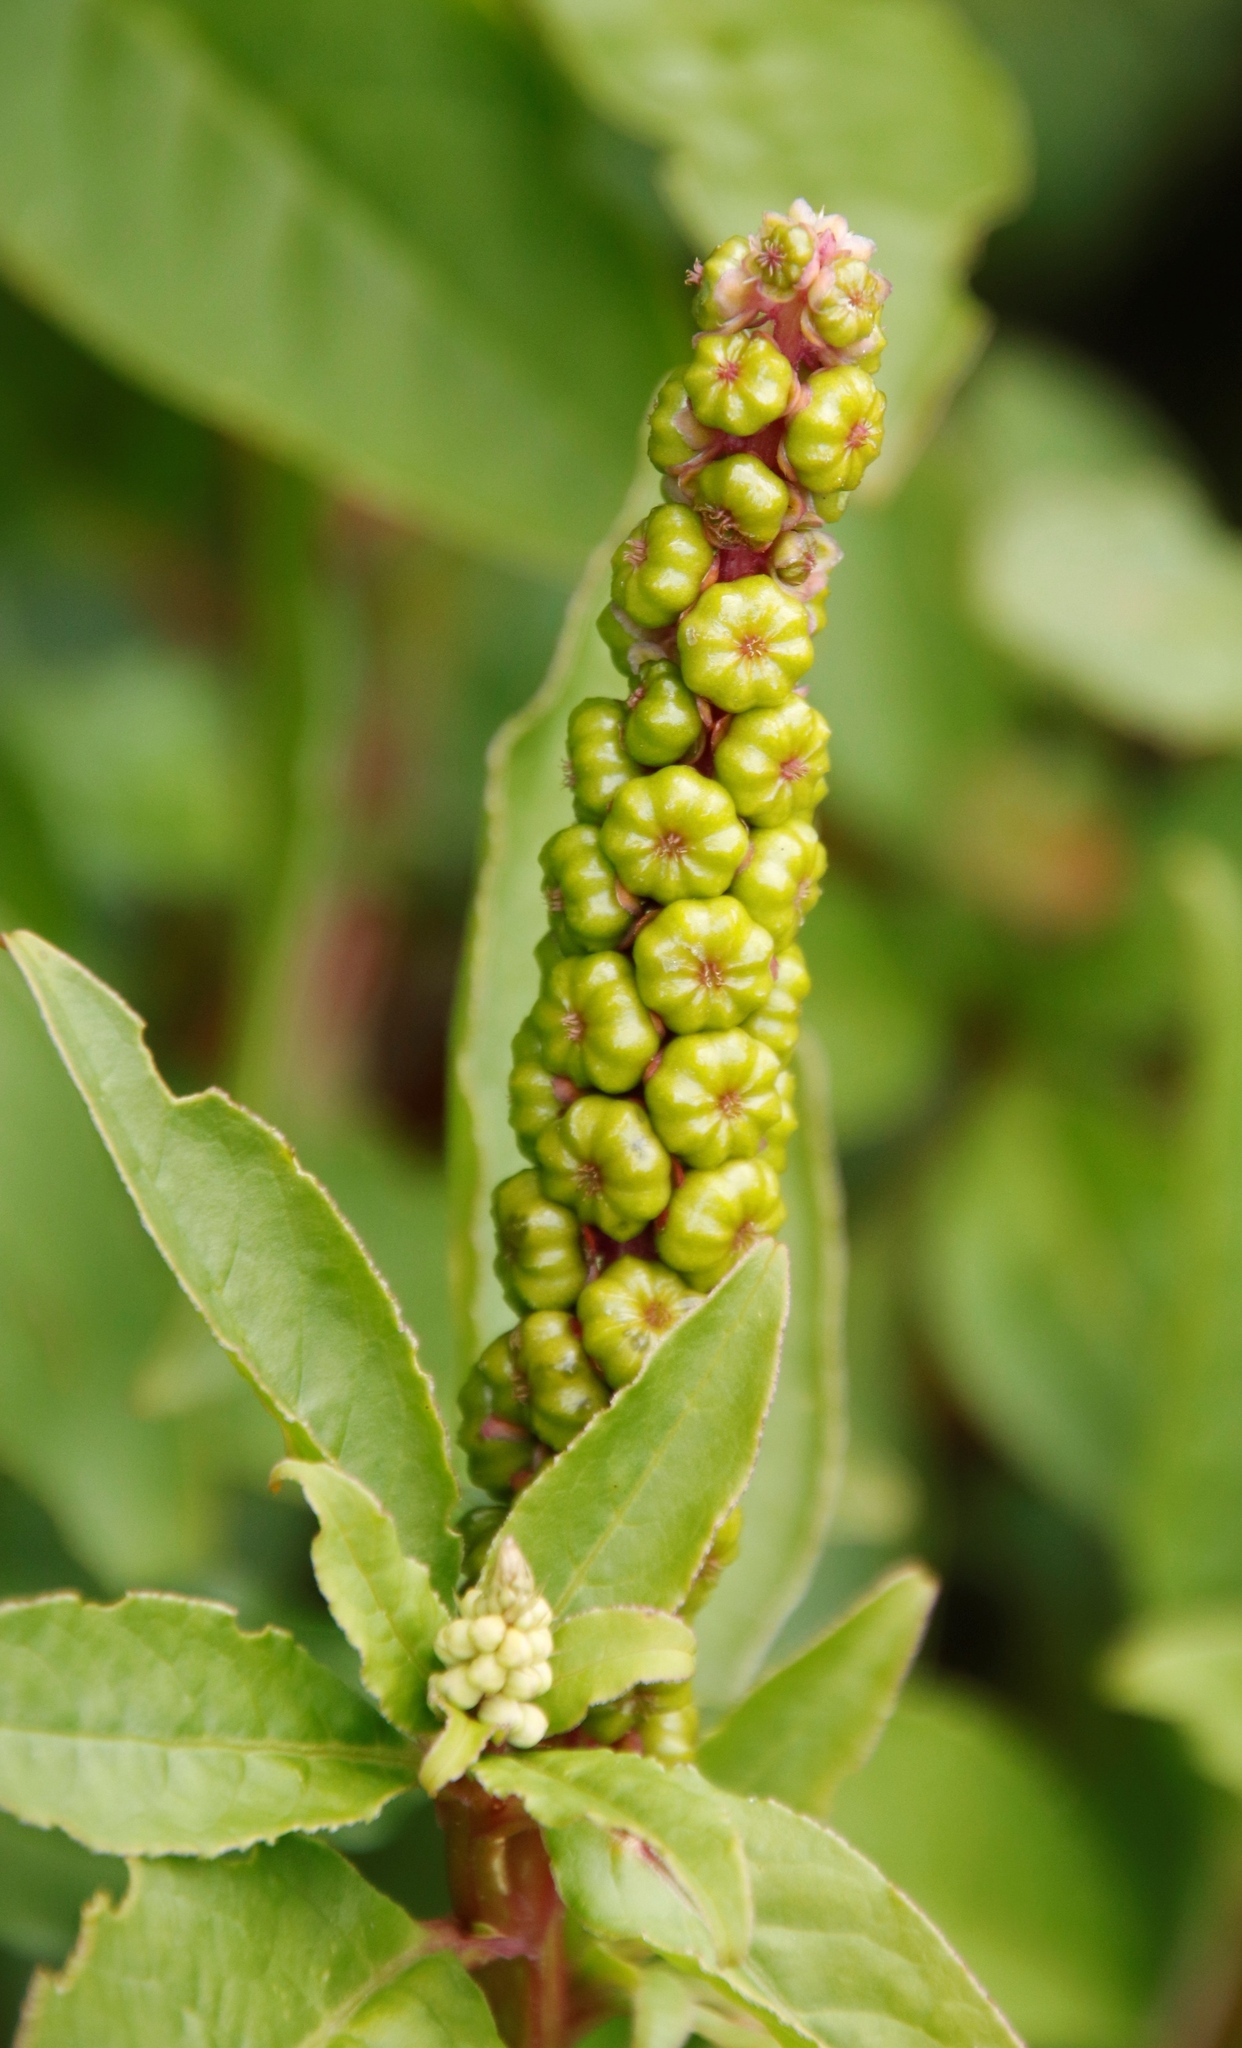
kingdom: Plantae
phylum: Tracheophyta
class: Magnoliopsida
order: Caryophyllales
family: Phytolaccaceae
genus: Phytolacca
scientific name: Phytolacca icosandra
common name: Button pokeweed
